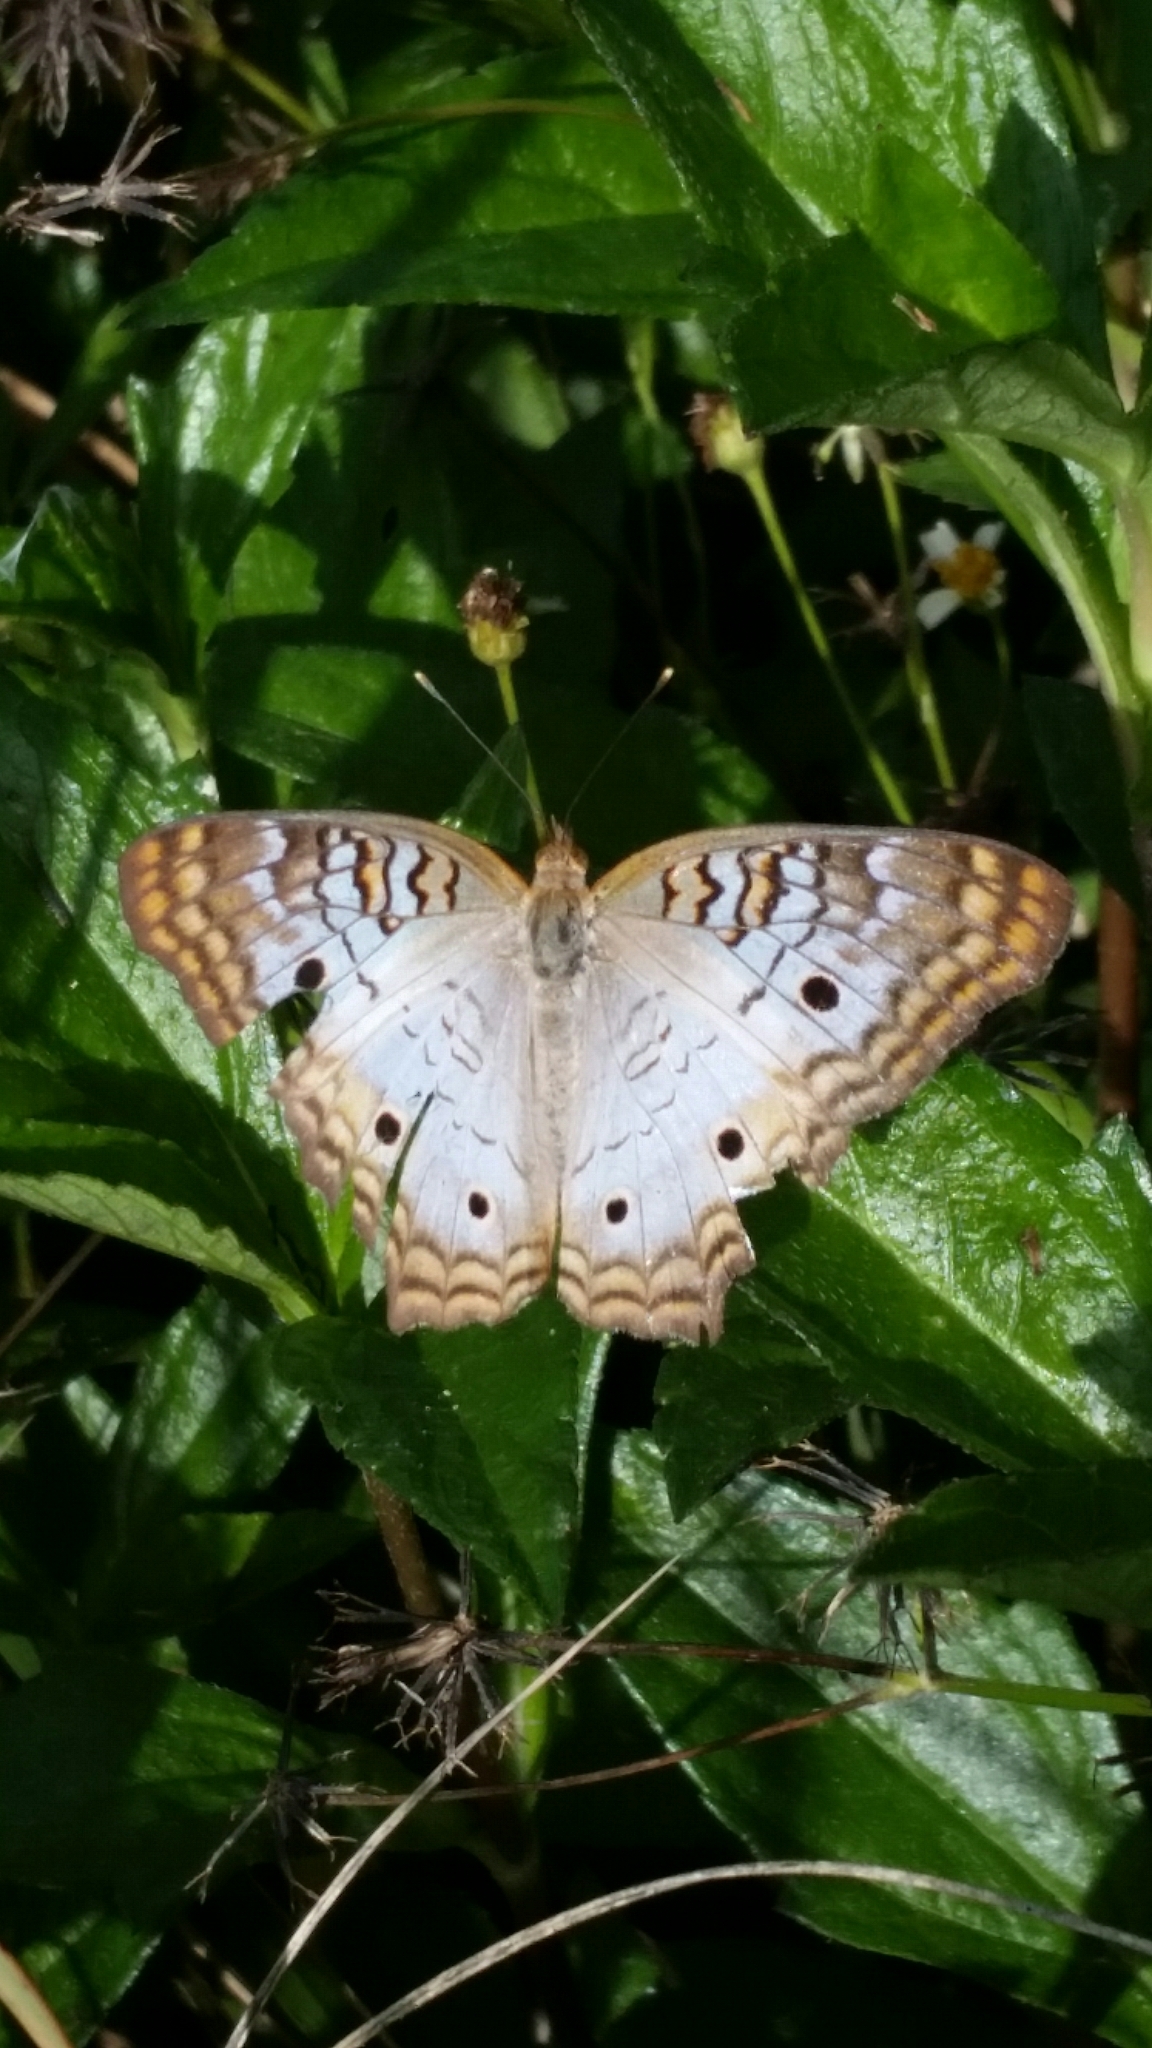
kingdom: Animalia
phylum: Arthropoda
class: Insecta
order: Lepidoptera
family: Nymphalidae
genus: Anartia
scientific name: Anartia jatrophae
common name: White peacock
